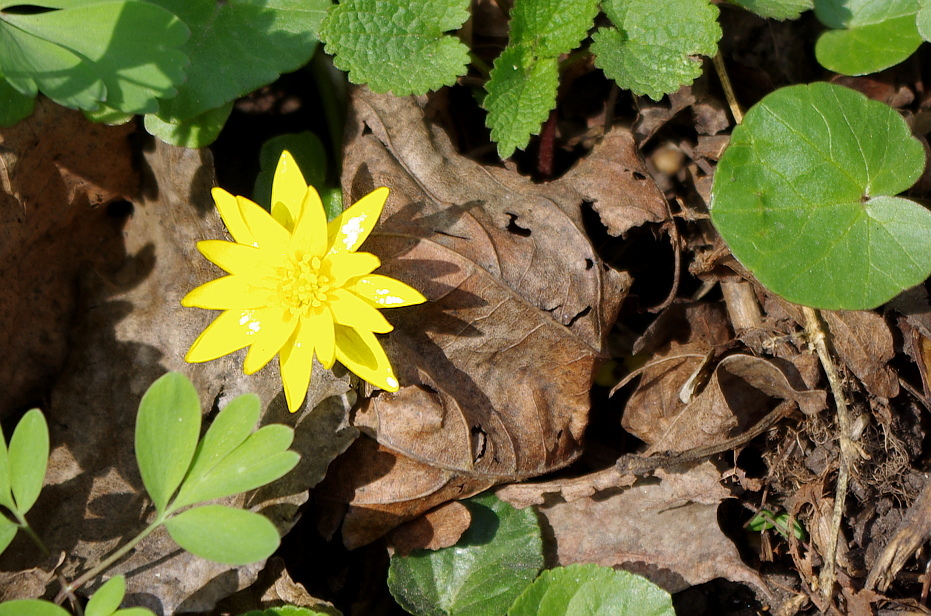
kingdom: Plantae
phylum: Tracheophyta
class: Magnoliopsida
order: Ranunculales
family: Ranunculaceae
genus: Ficaria
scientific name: Ficaria verna
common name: Lesser celandine
